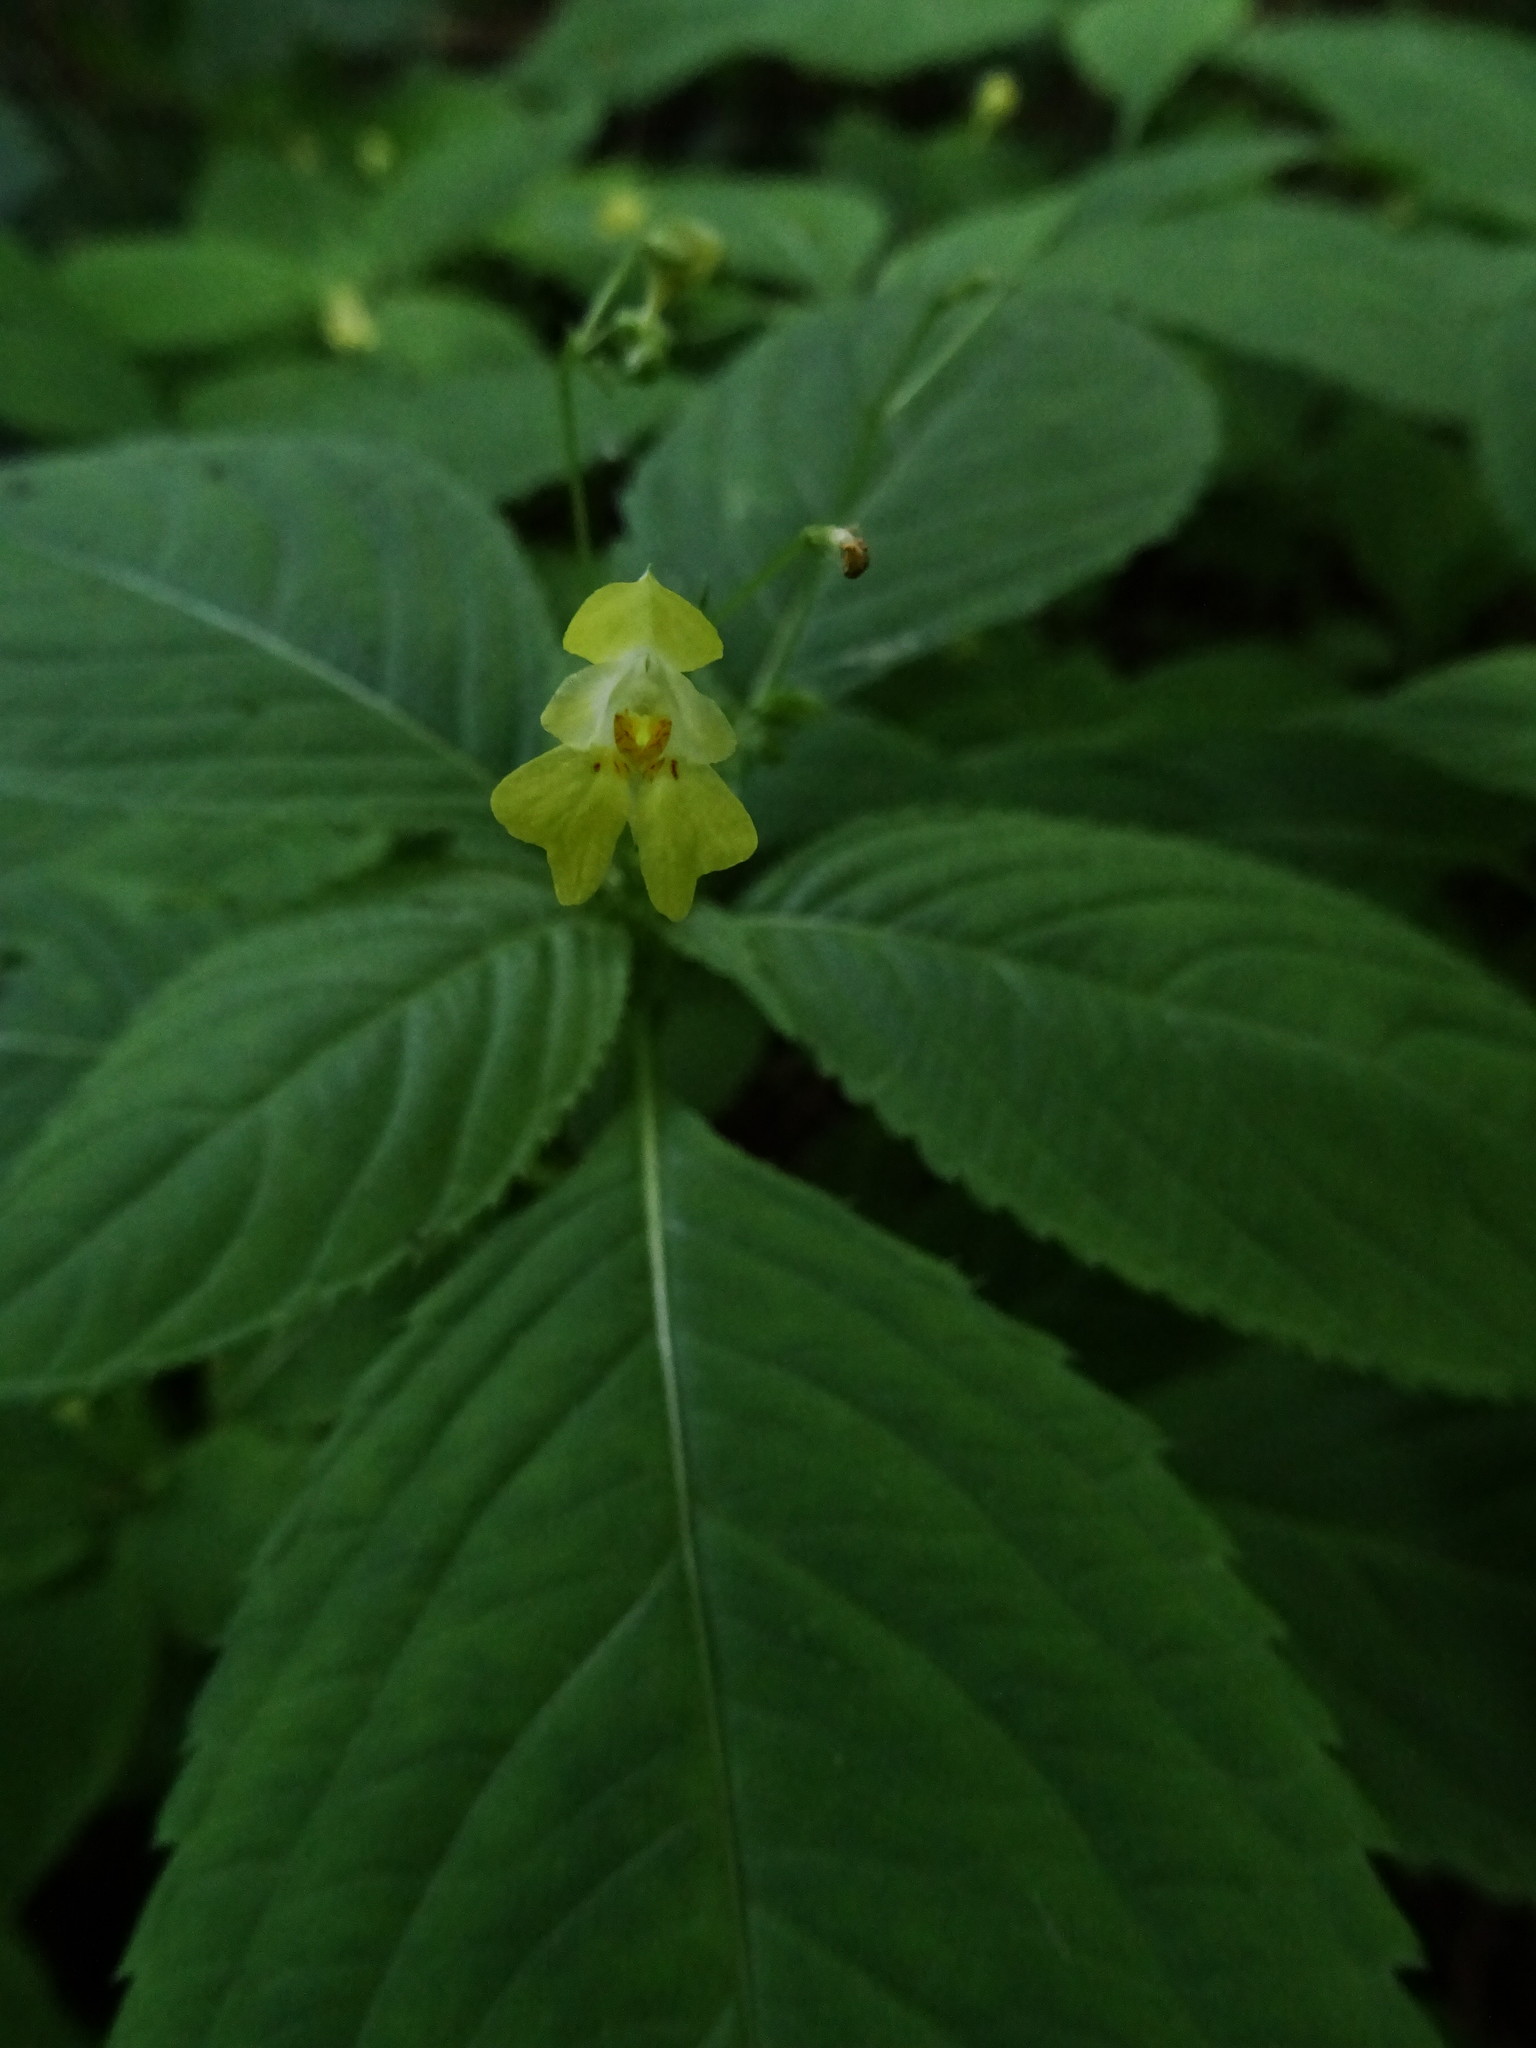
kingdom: Plantae
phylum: Tracheophyta
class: Magnoliopsida
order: Ericales
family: Balsaminaceae
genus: Impatiens
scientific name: Impatiens parviflora
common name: Small balsam
